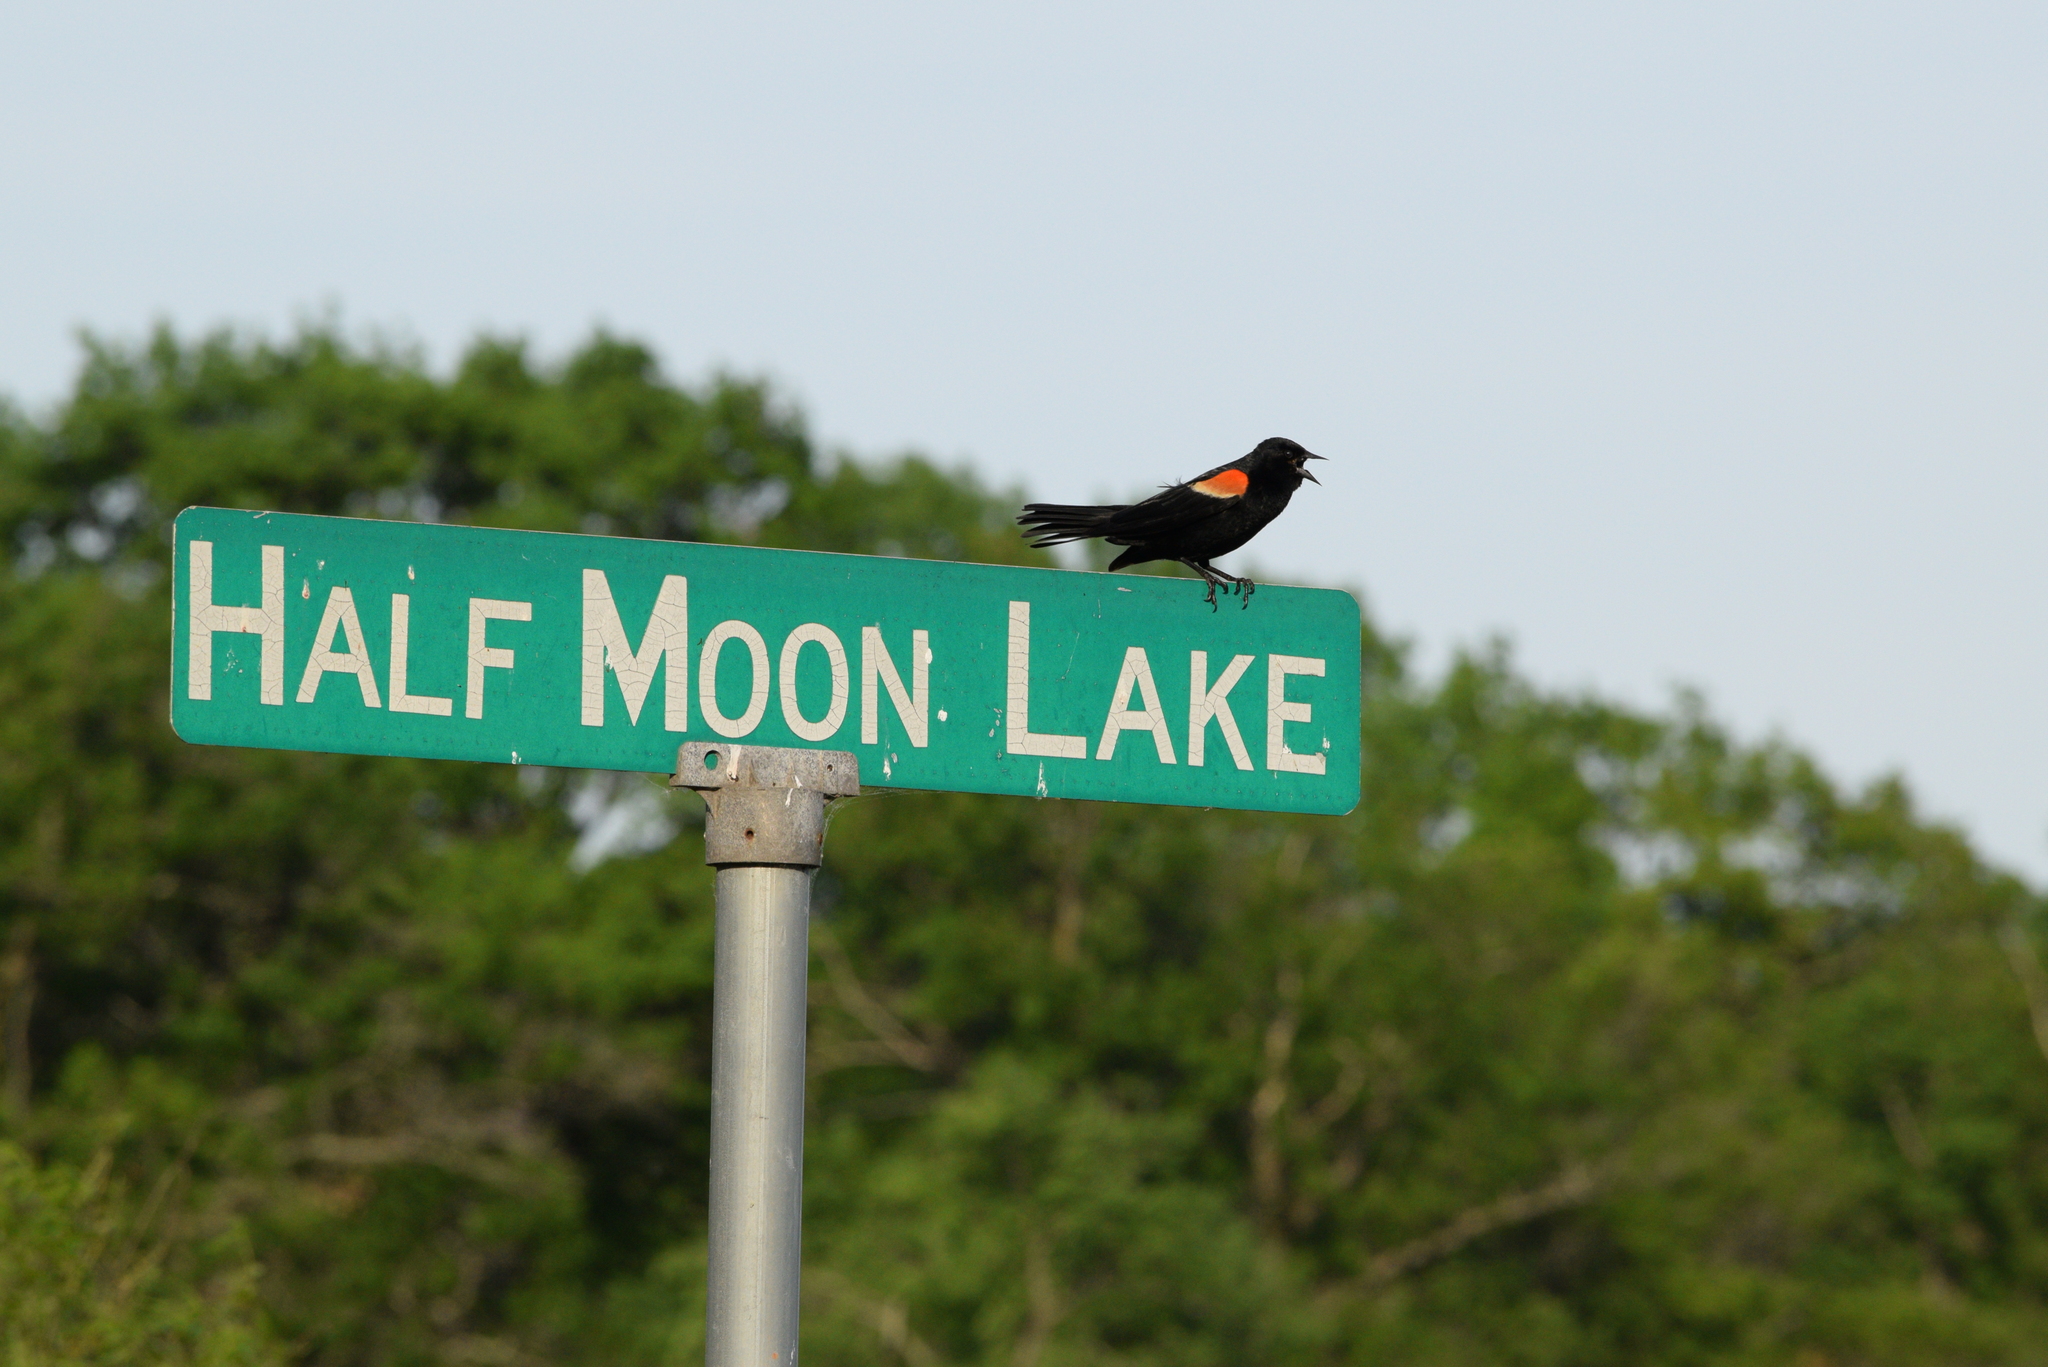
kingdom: Animalia
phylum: Chordata
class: Aves
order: Passeriformes
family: Icteridae
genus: Agelaius
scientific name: Agelaius phoeniceus
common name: Red-winged blackbird
